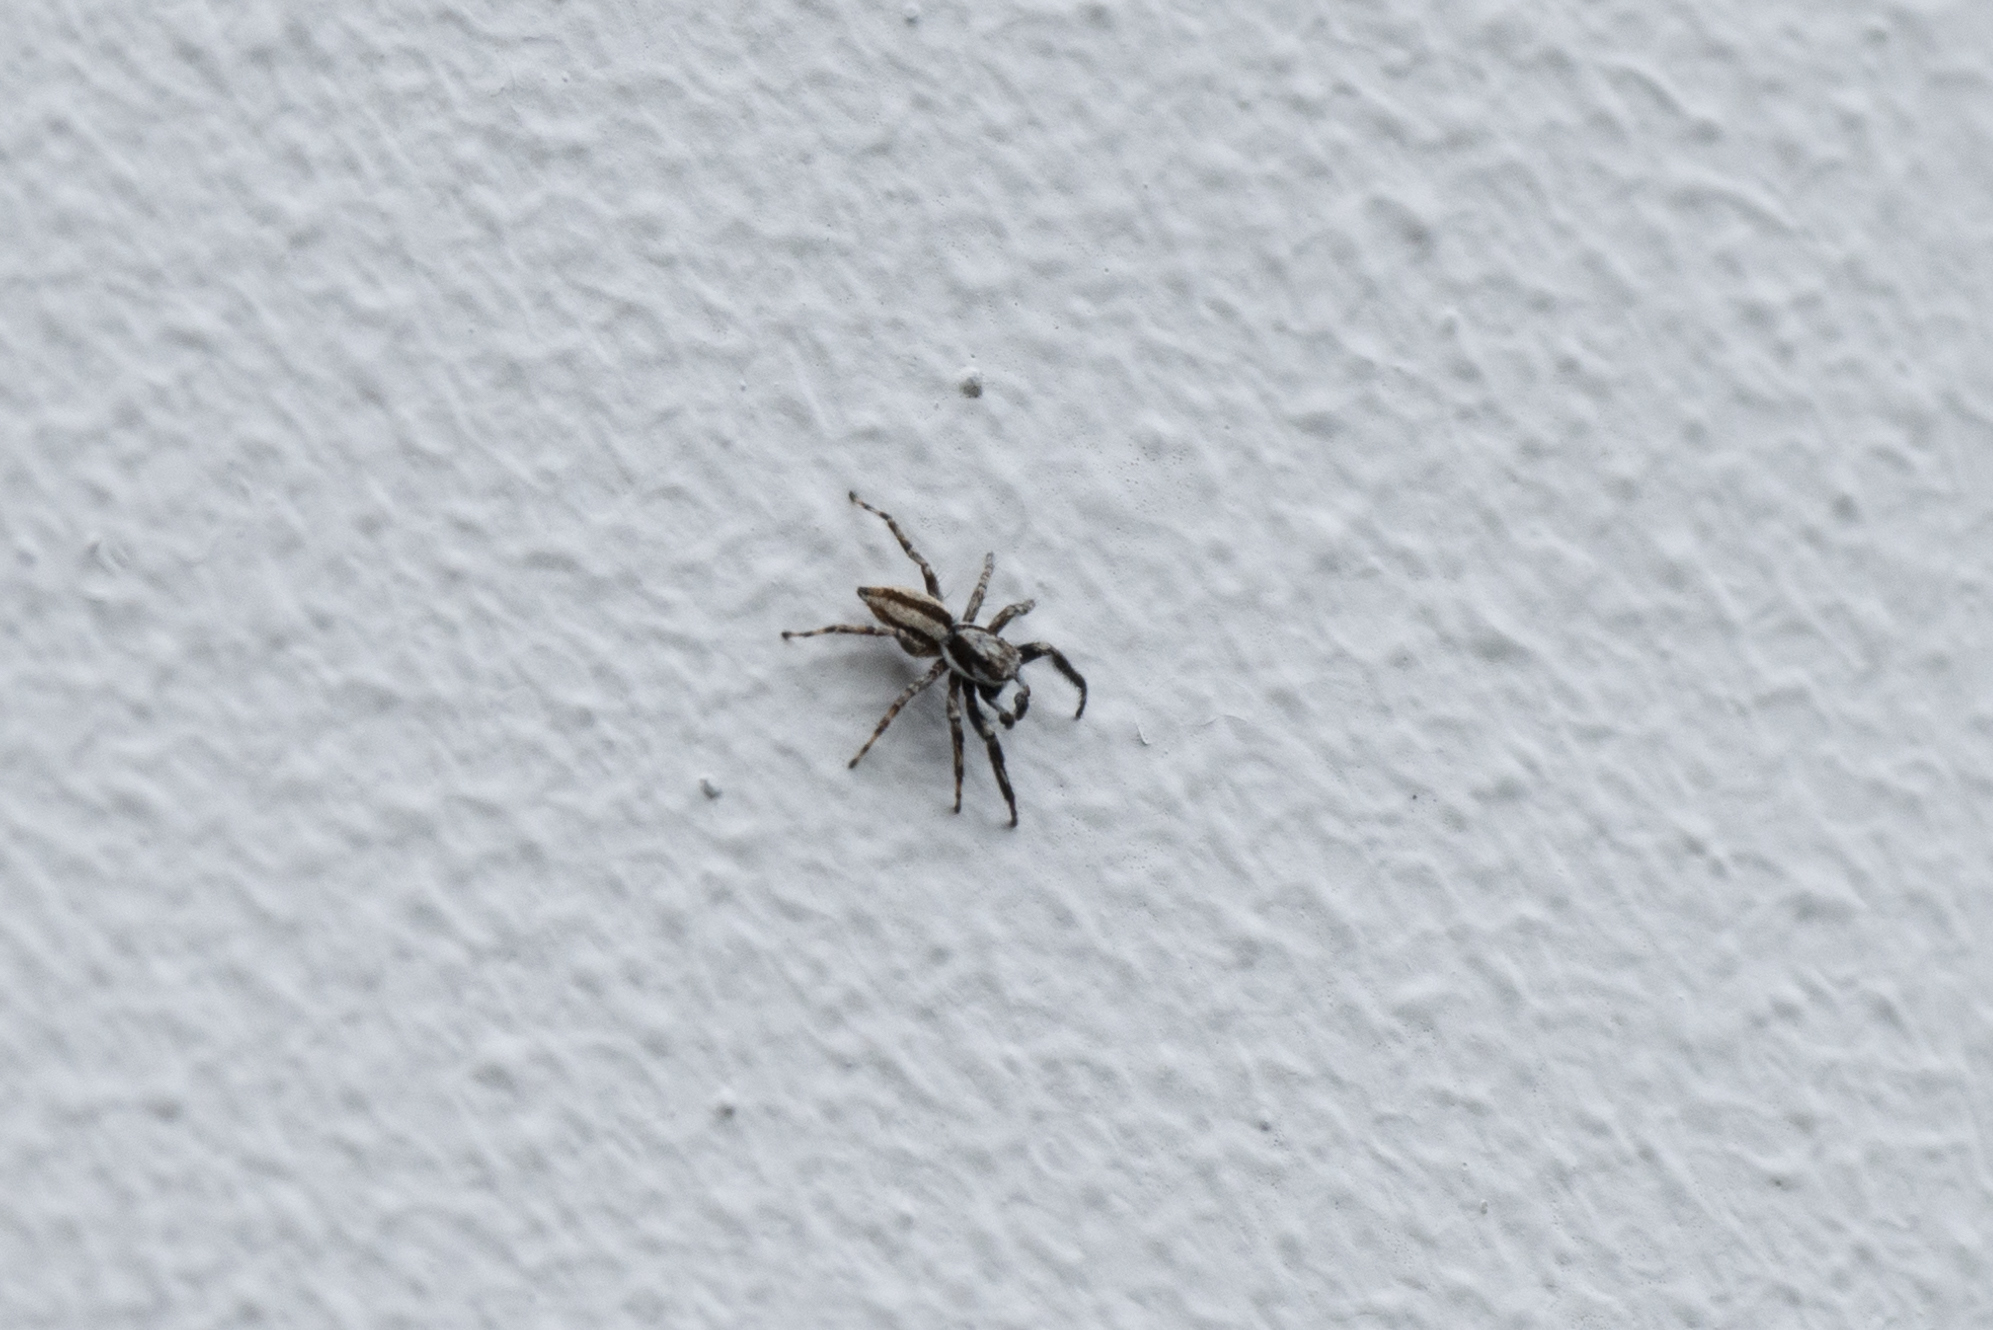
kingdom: Animalia
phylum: Arthropoda
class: Arachnida
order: Araneae
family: Salticidae
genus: Menemerus
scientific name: Menemerus bivittatus
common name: Gray wall jumper
